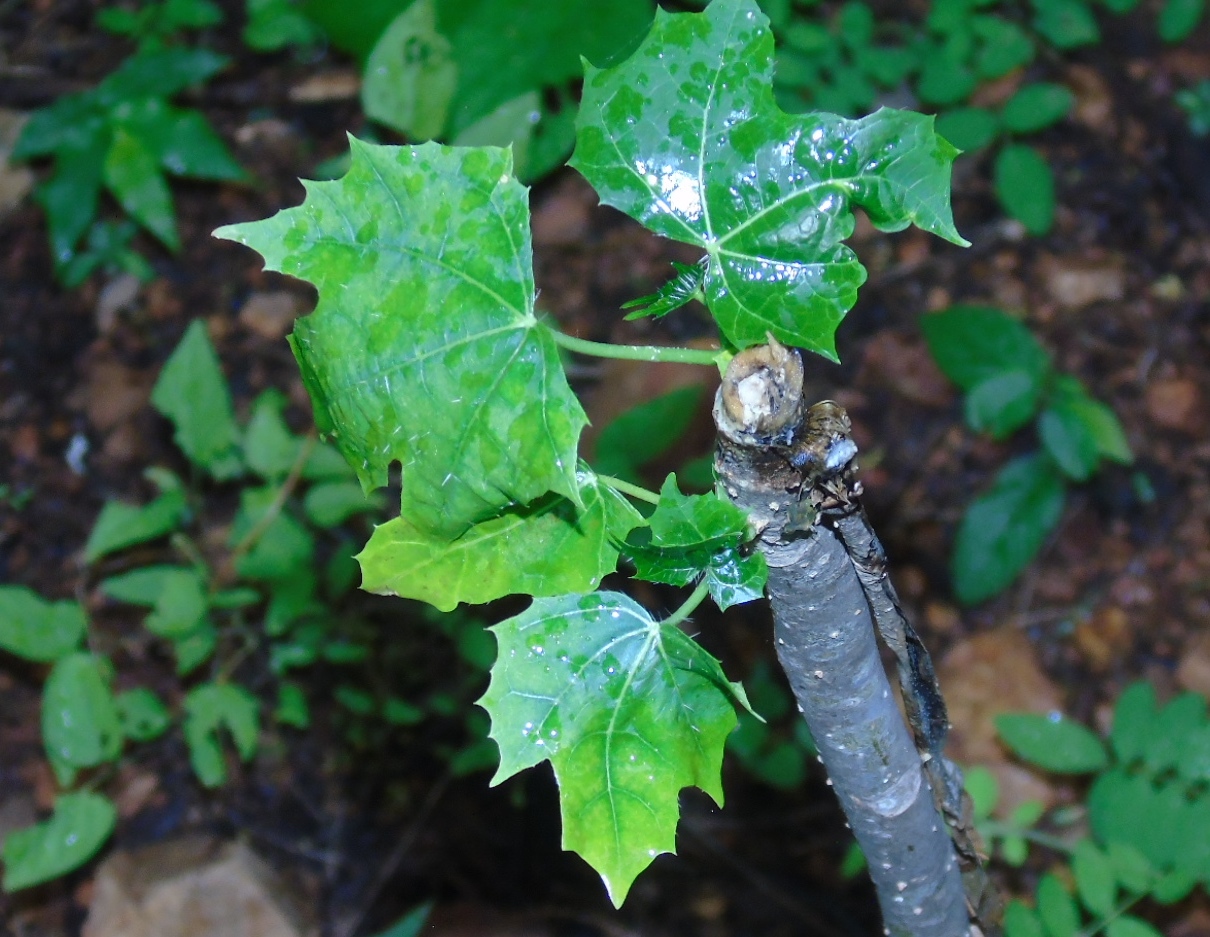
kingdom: Plantae
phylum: Tracheophyta
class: Magnoliopsida
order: Malpighiales
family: Euphorbiaceae
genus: Cnidoscolus
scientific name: Cnidoscolus elasticus
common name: Chilte
